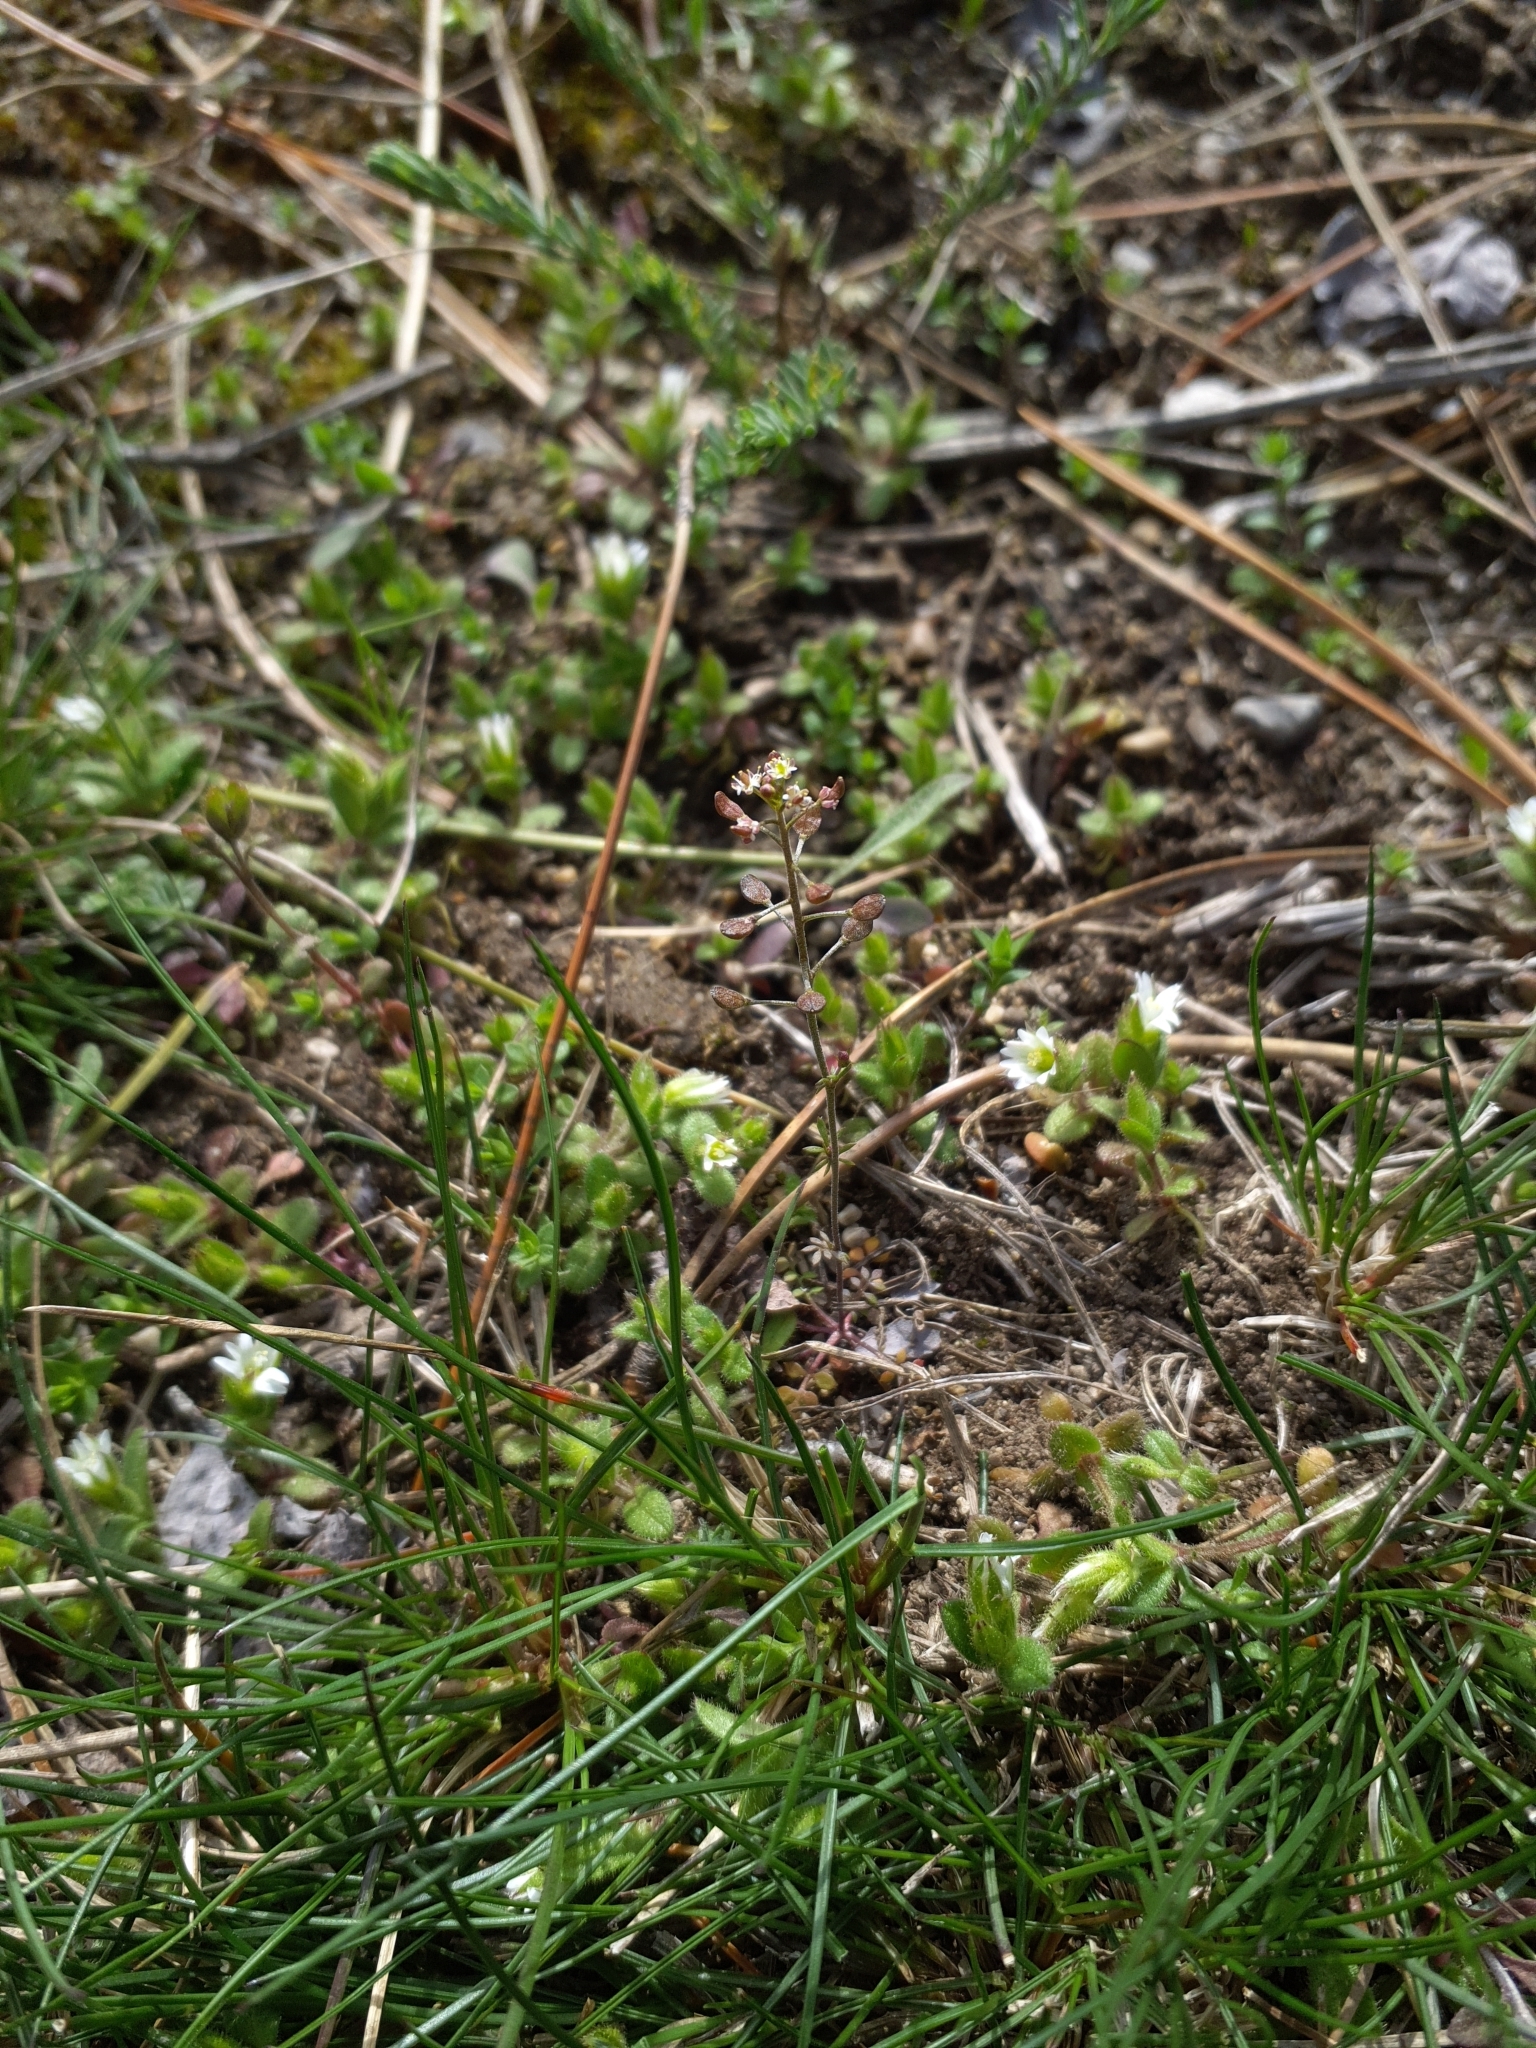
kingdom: Plantae
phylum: Tracheophyta
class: Magnoliopsida
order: Brassicales
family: Brassicaceae
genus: Hornungia
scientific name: Hornungia petraea
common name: Hutchinsia
